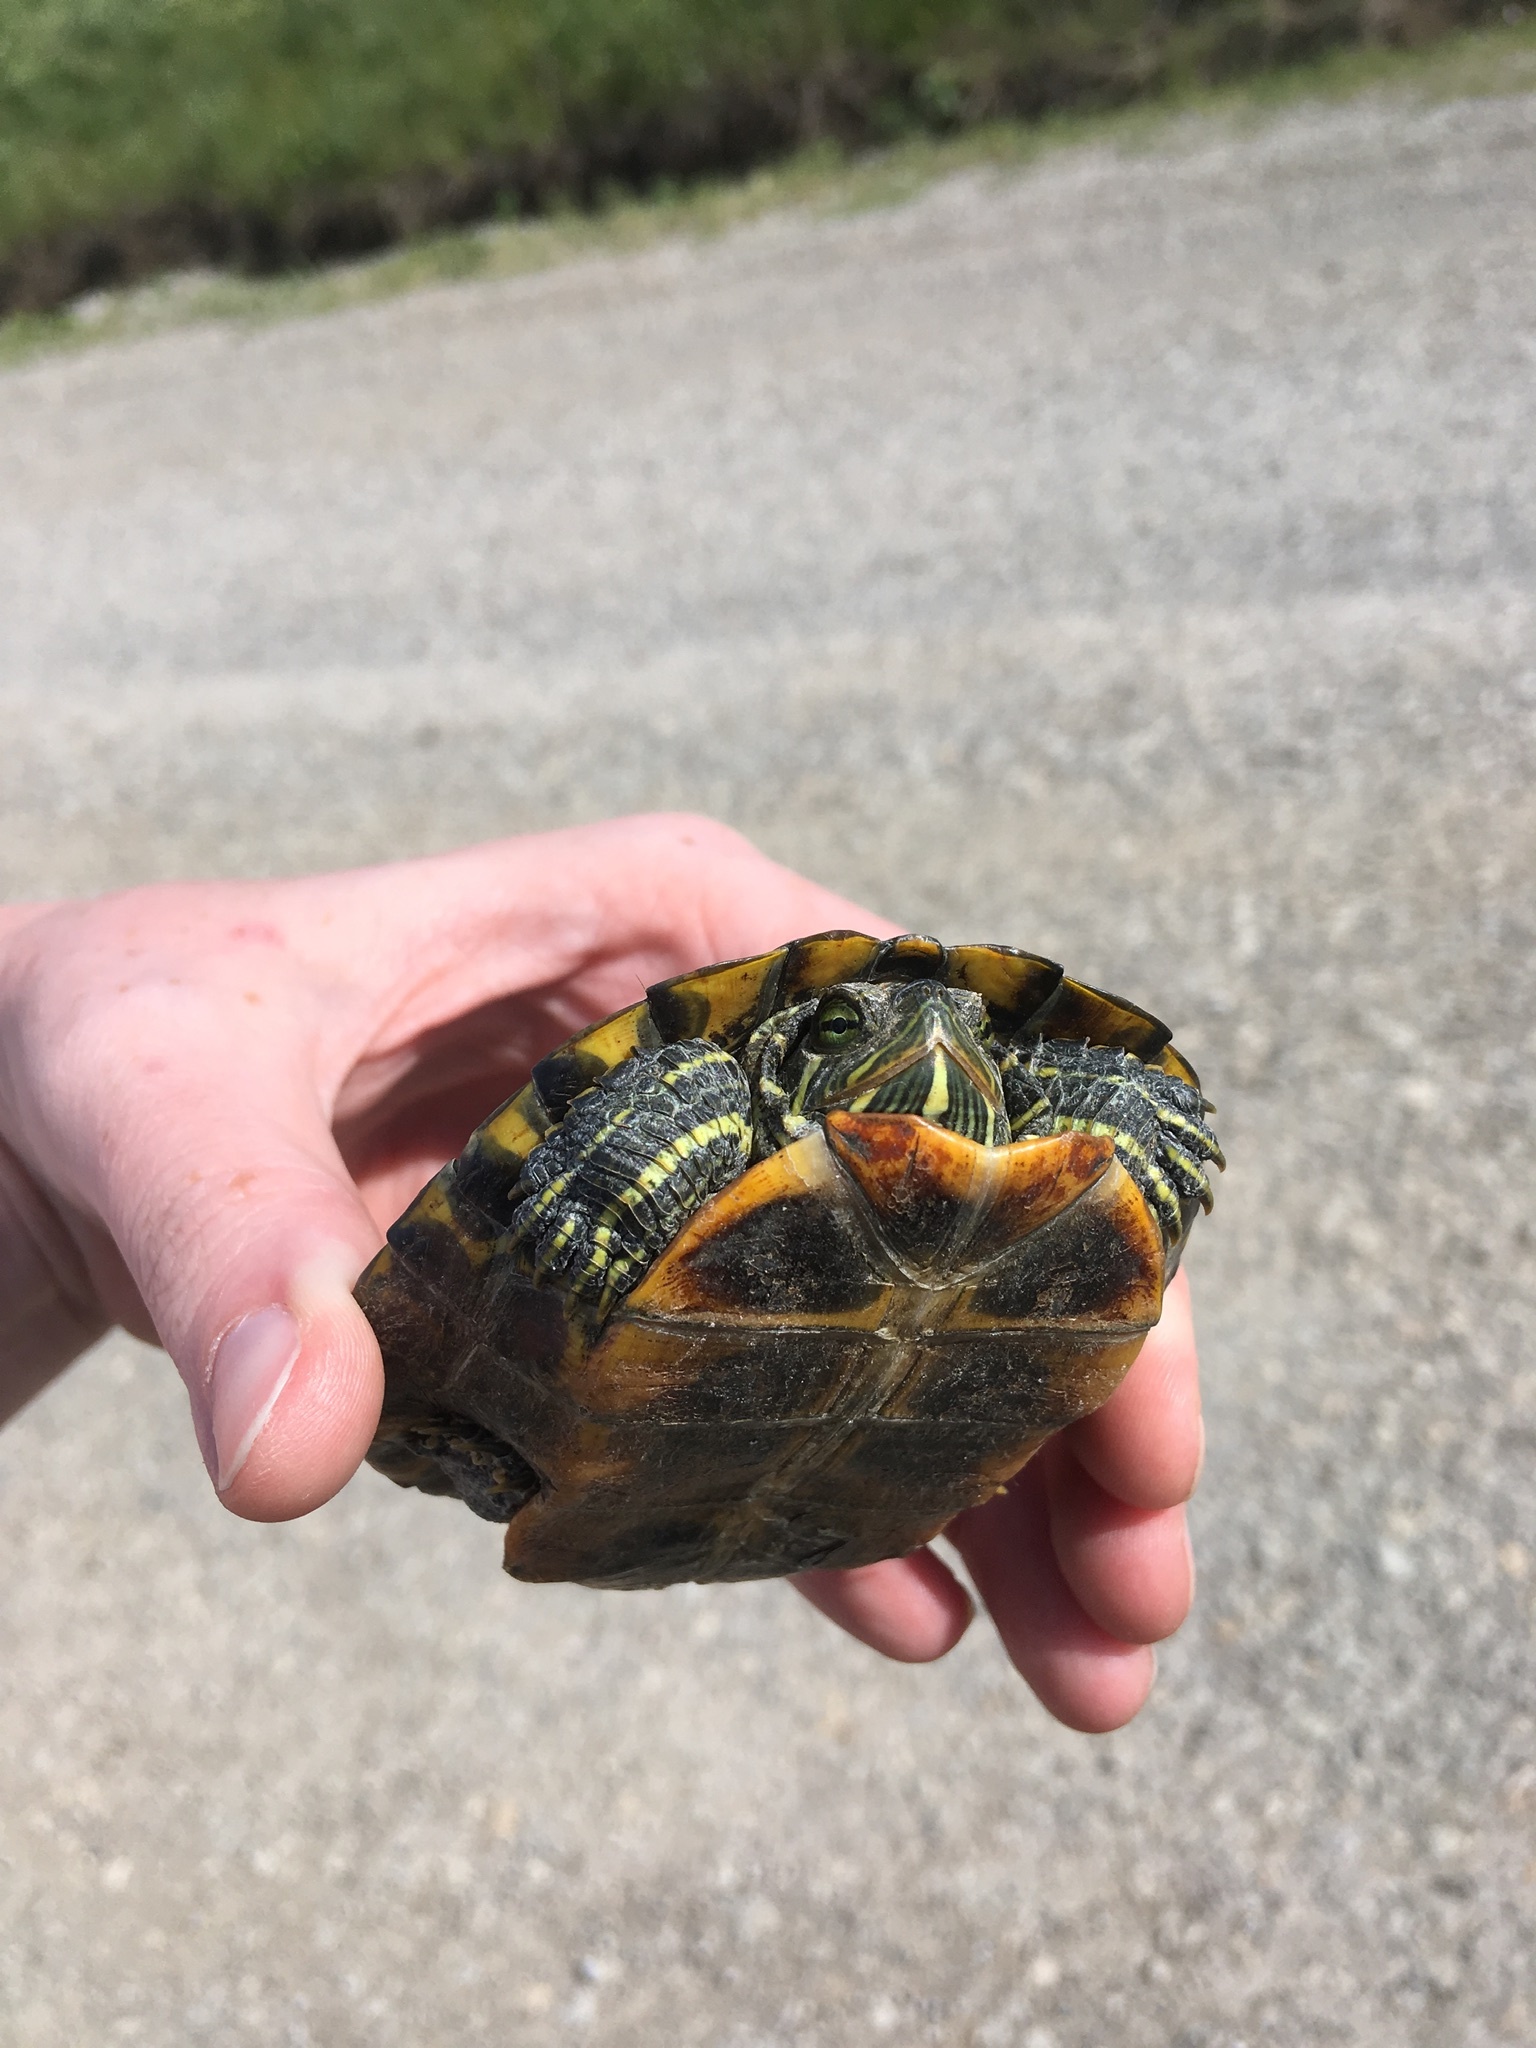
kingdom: Animalia
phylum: Chordata
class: Testudines
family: Emydidae
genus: Trachemys
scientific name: Trachemys scripta
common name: Slider
